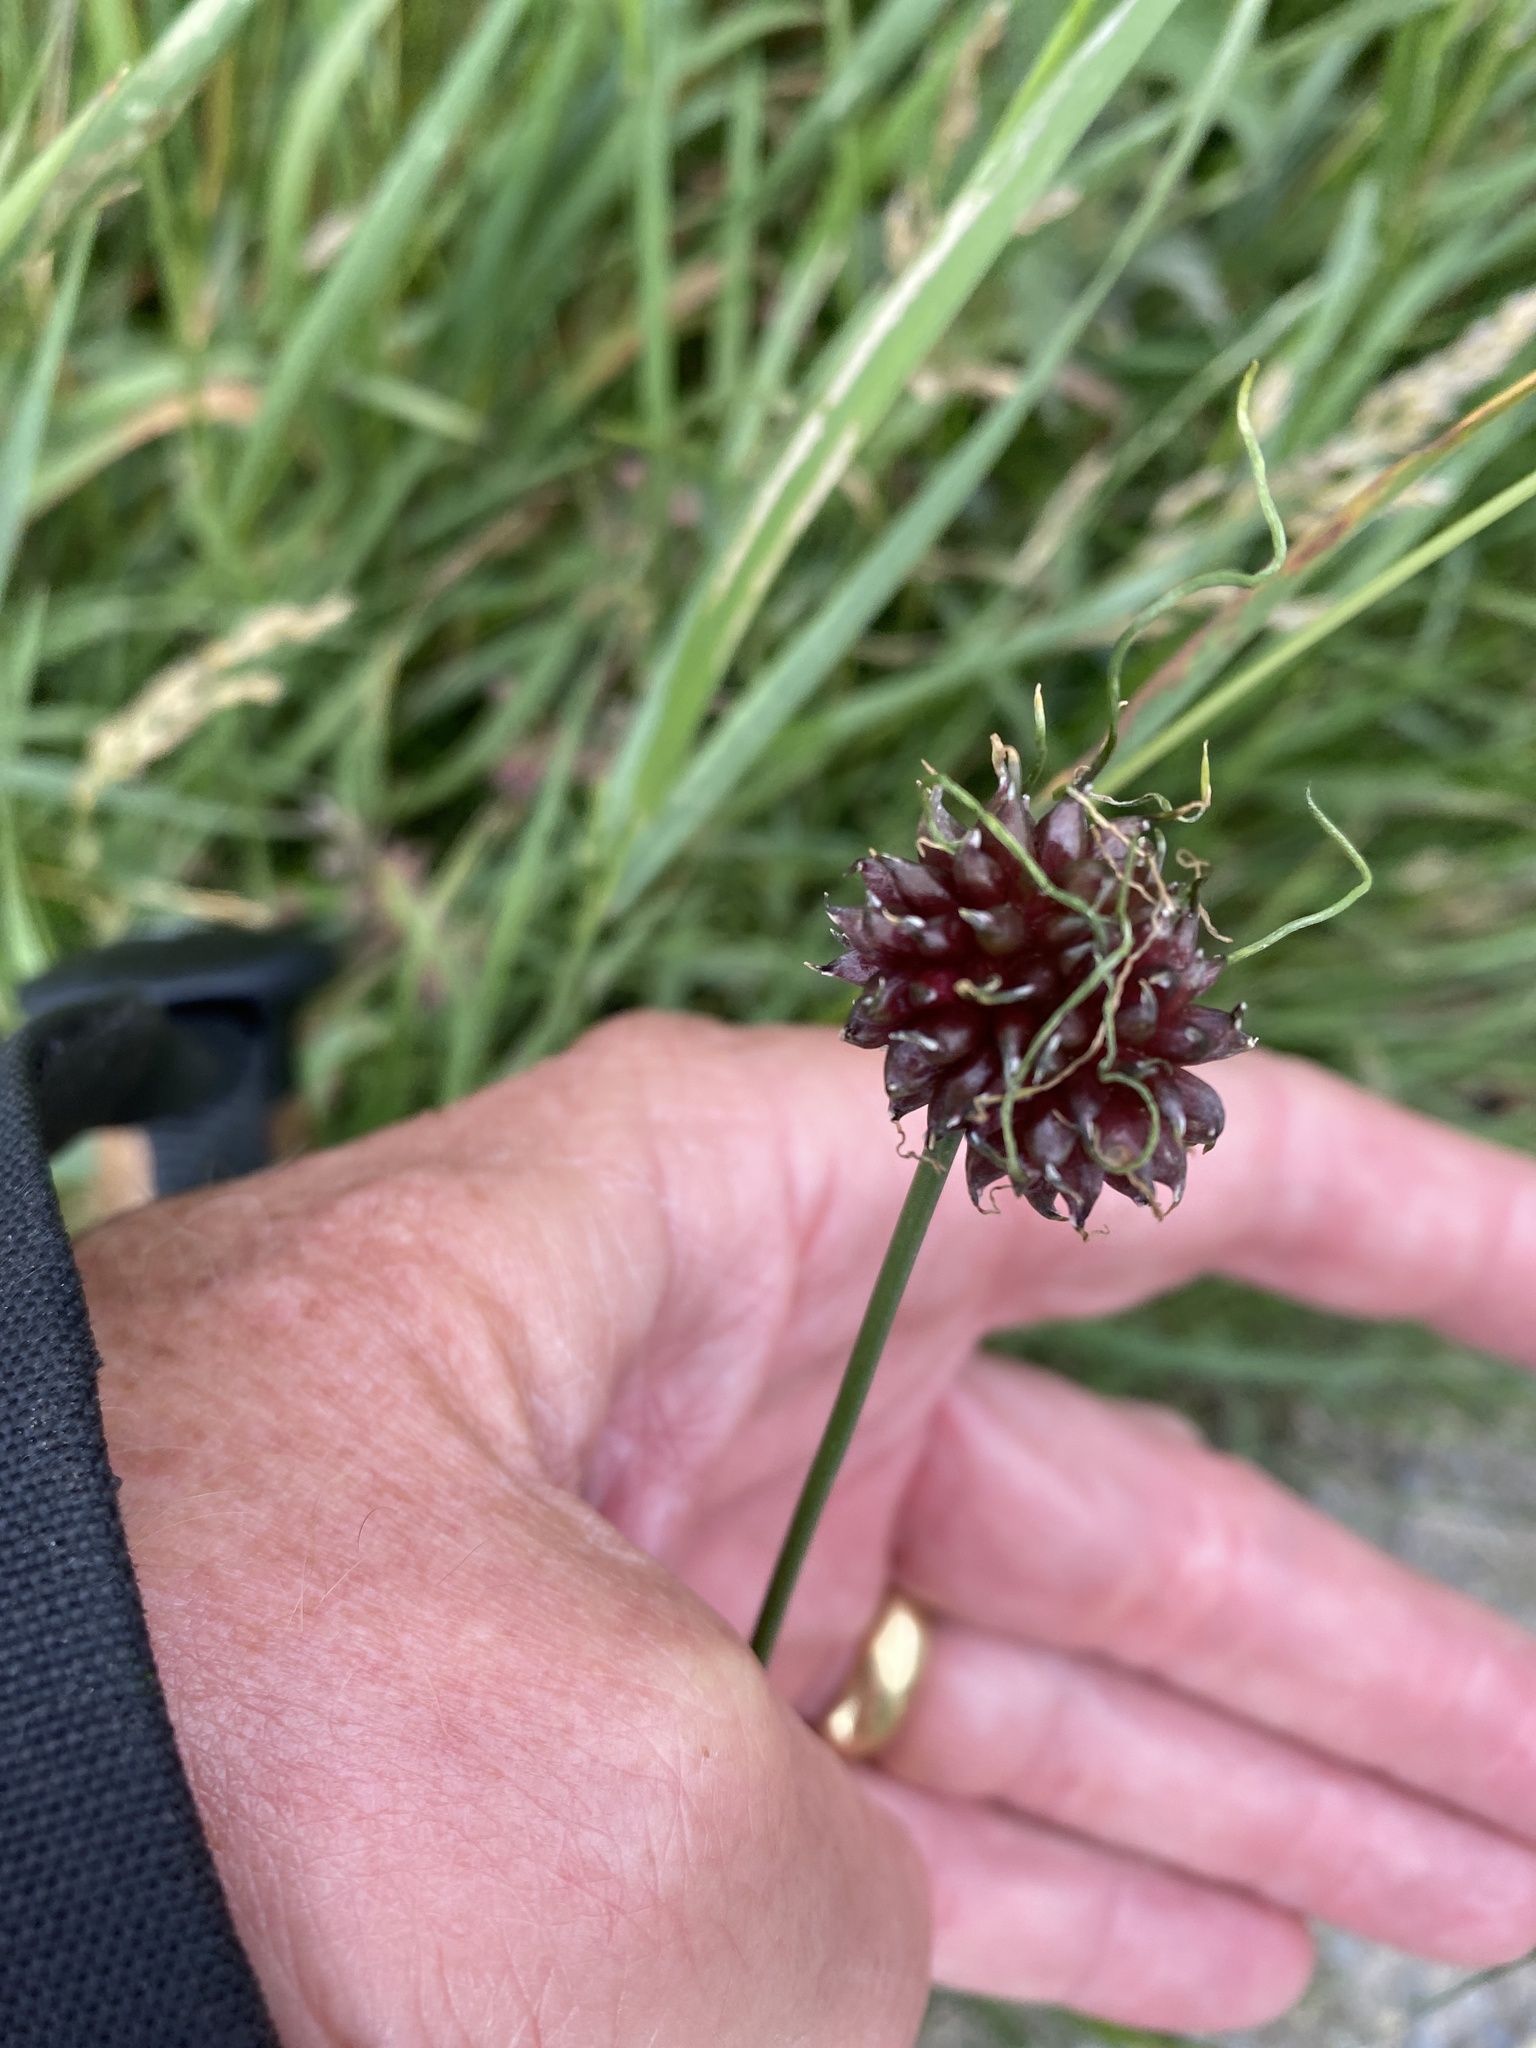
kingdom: Plantae
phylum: Tracheophyta
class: Liliopsida
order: Asparagales
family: Amaryllidaceae
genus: Allium
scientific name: Allium vineale
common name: Crow garlic
